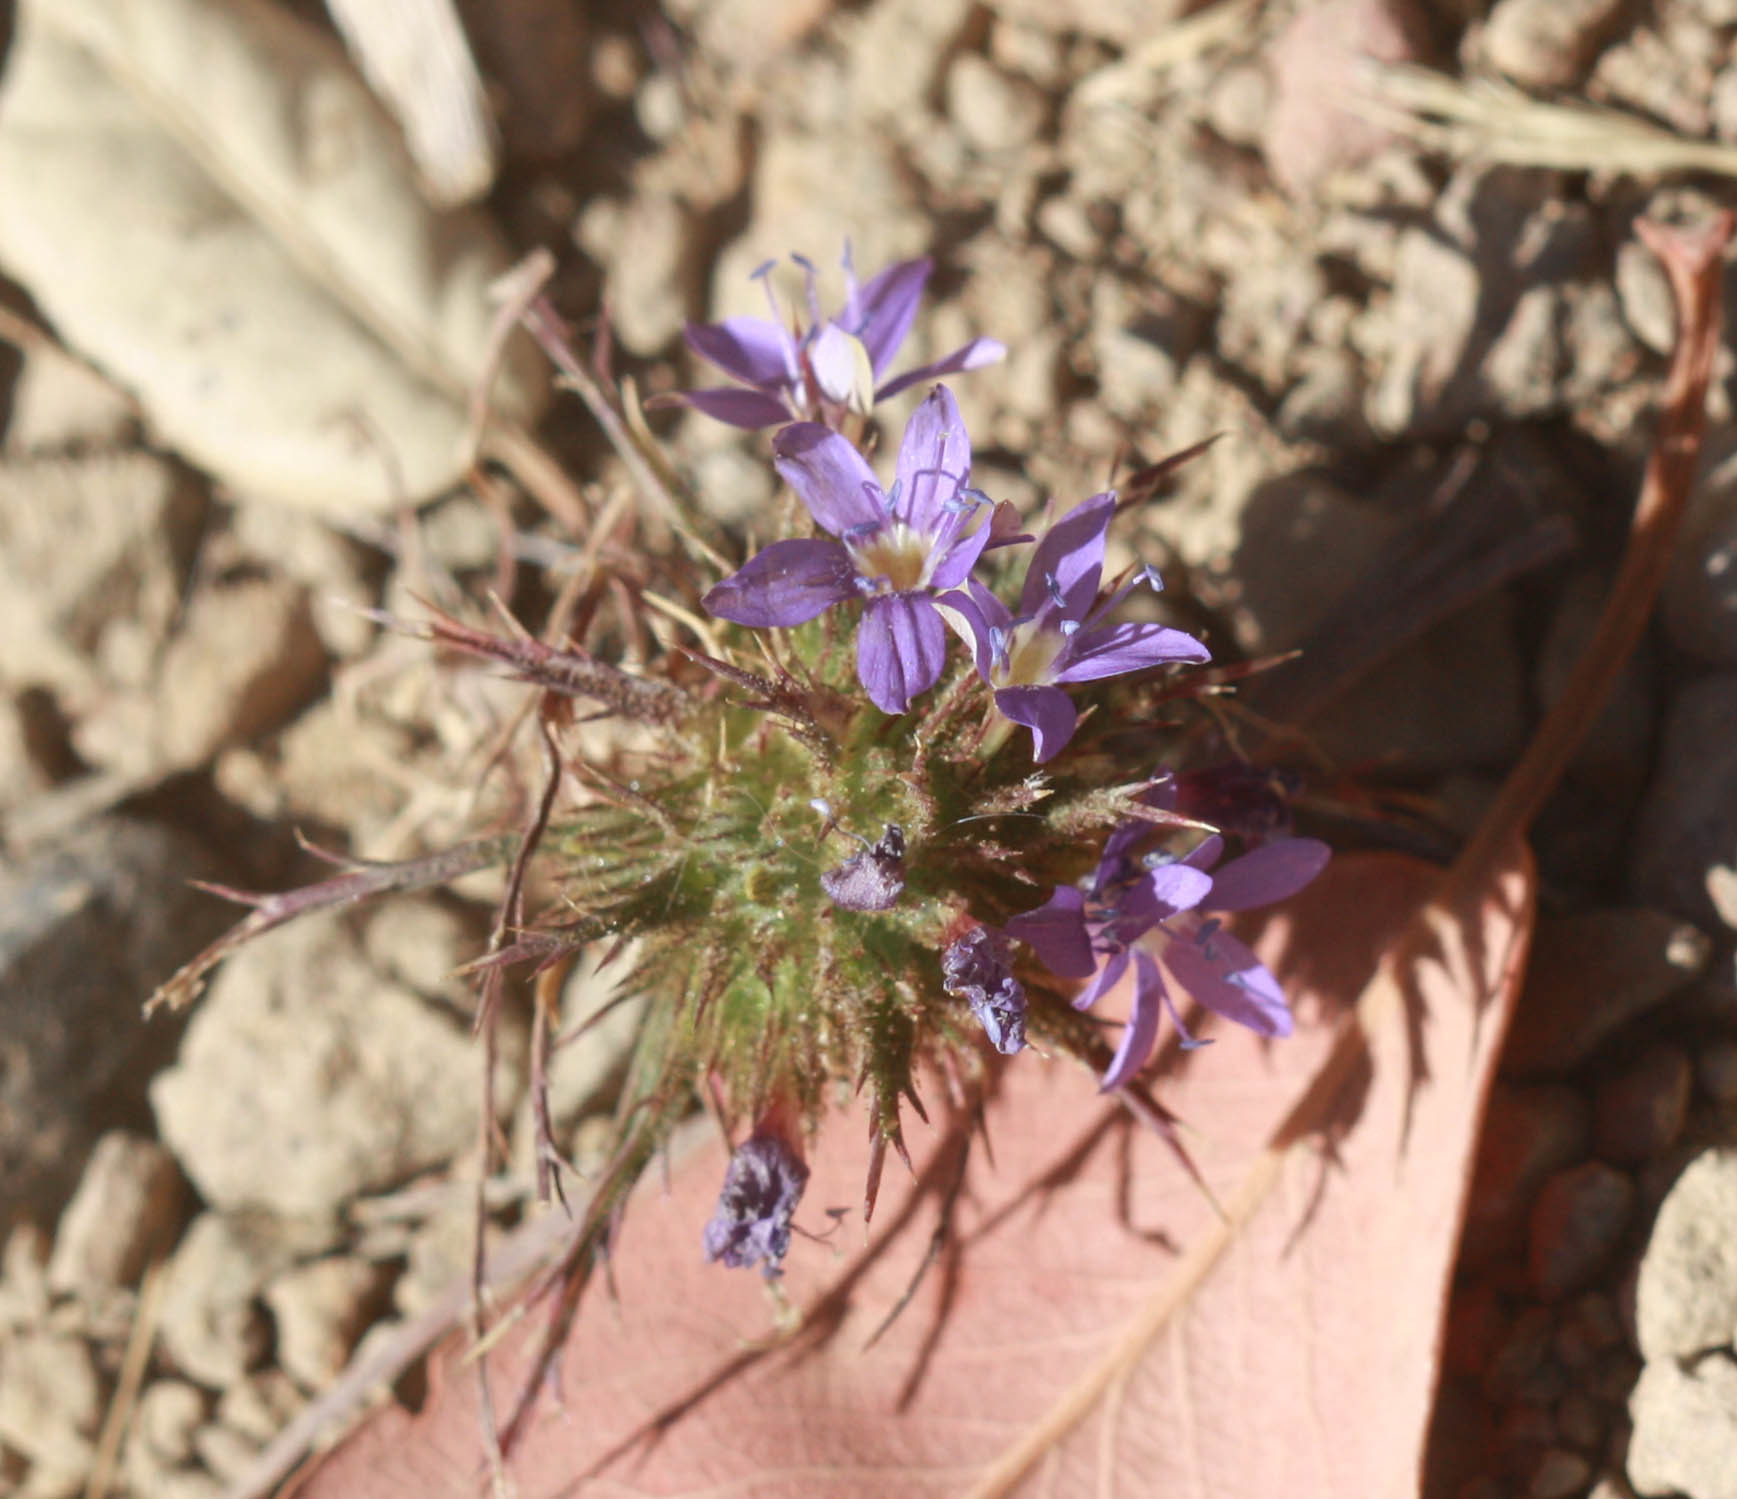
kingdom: Plantae
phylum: Tracheophyta
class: Magnoliopsida
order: Ericales
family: Polemoniaceae
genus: Navarretia
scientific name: Navarretia viscidula
